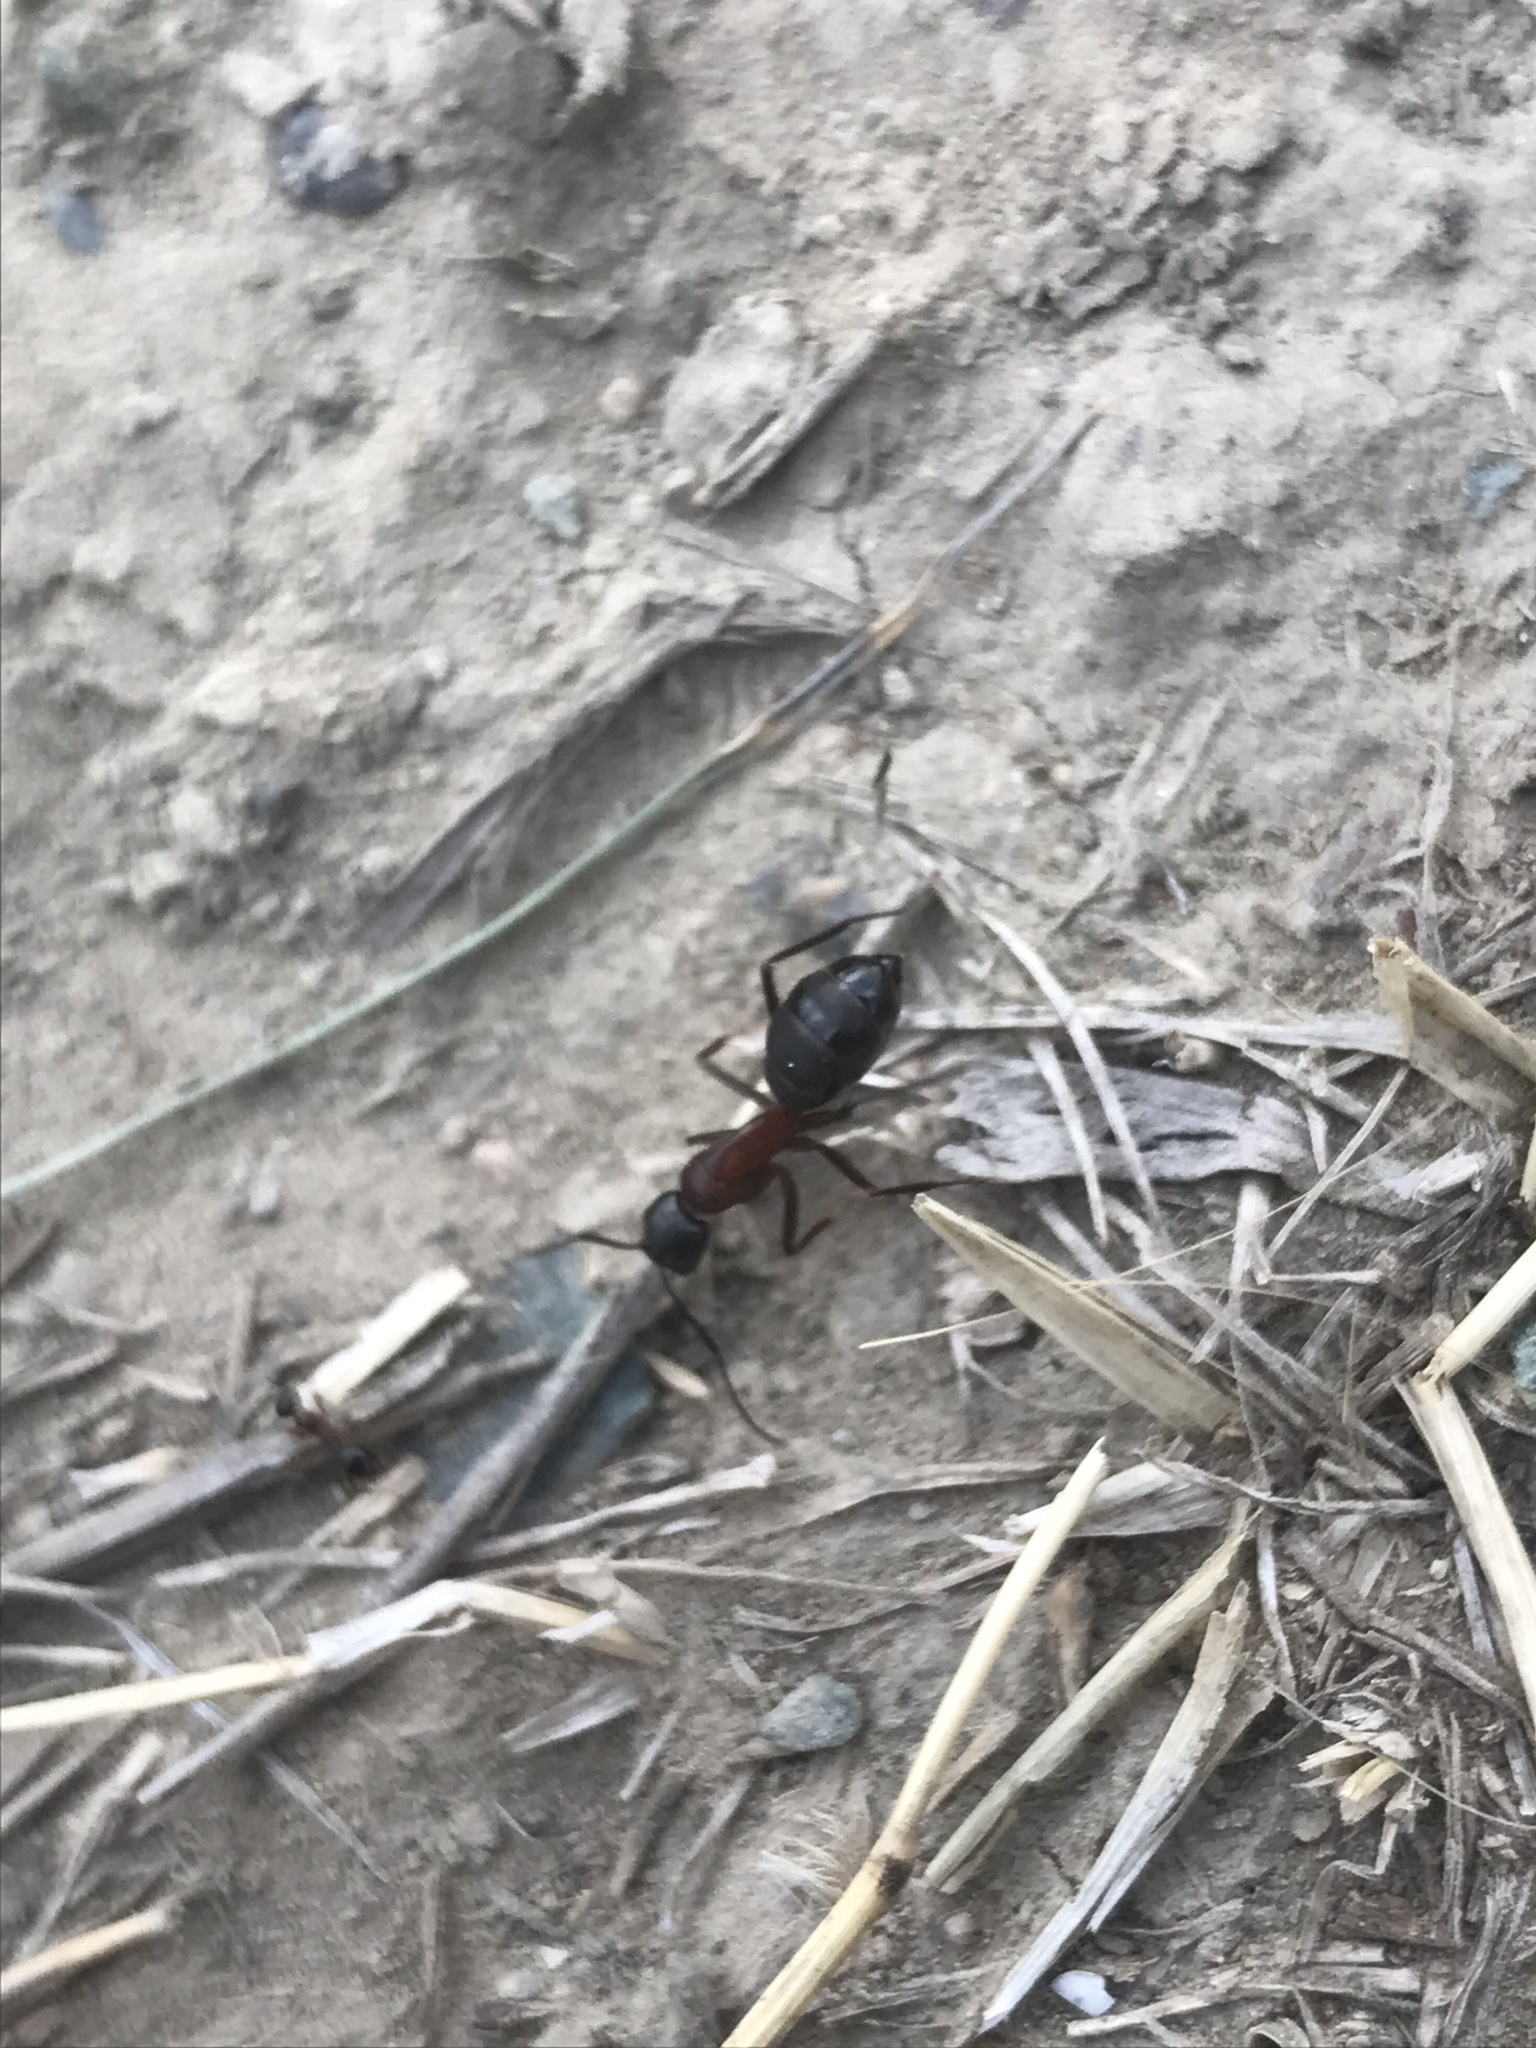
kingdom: Animalia
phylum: Arthropoda
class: Insecta
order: Hymenoptera
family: Formicidae
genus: Camponotus
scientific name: Camponotus vicinus
